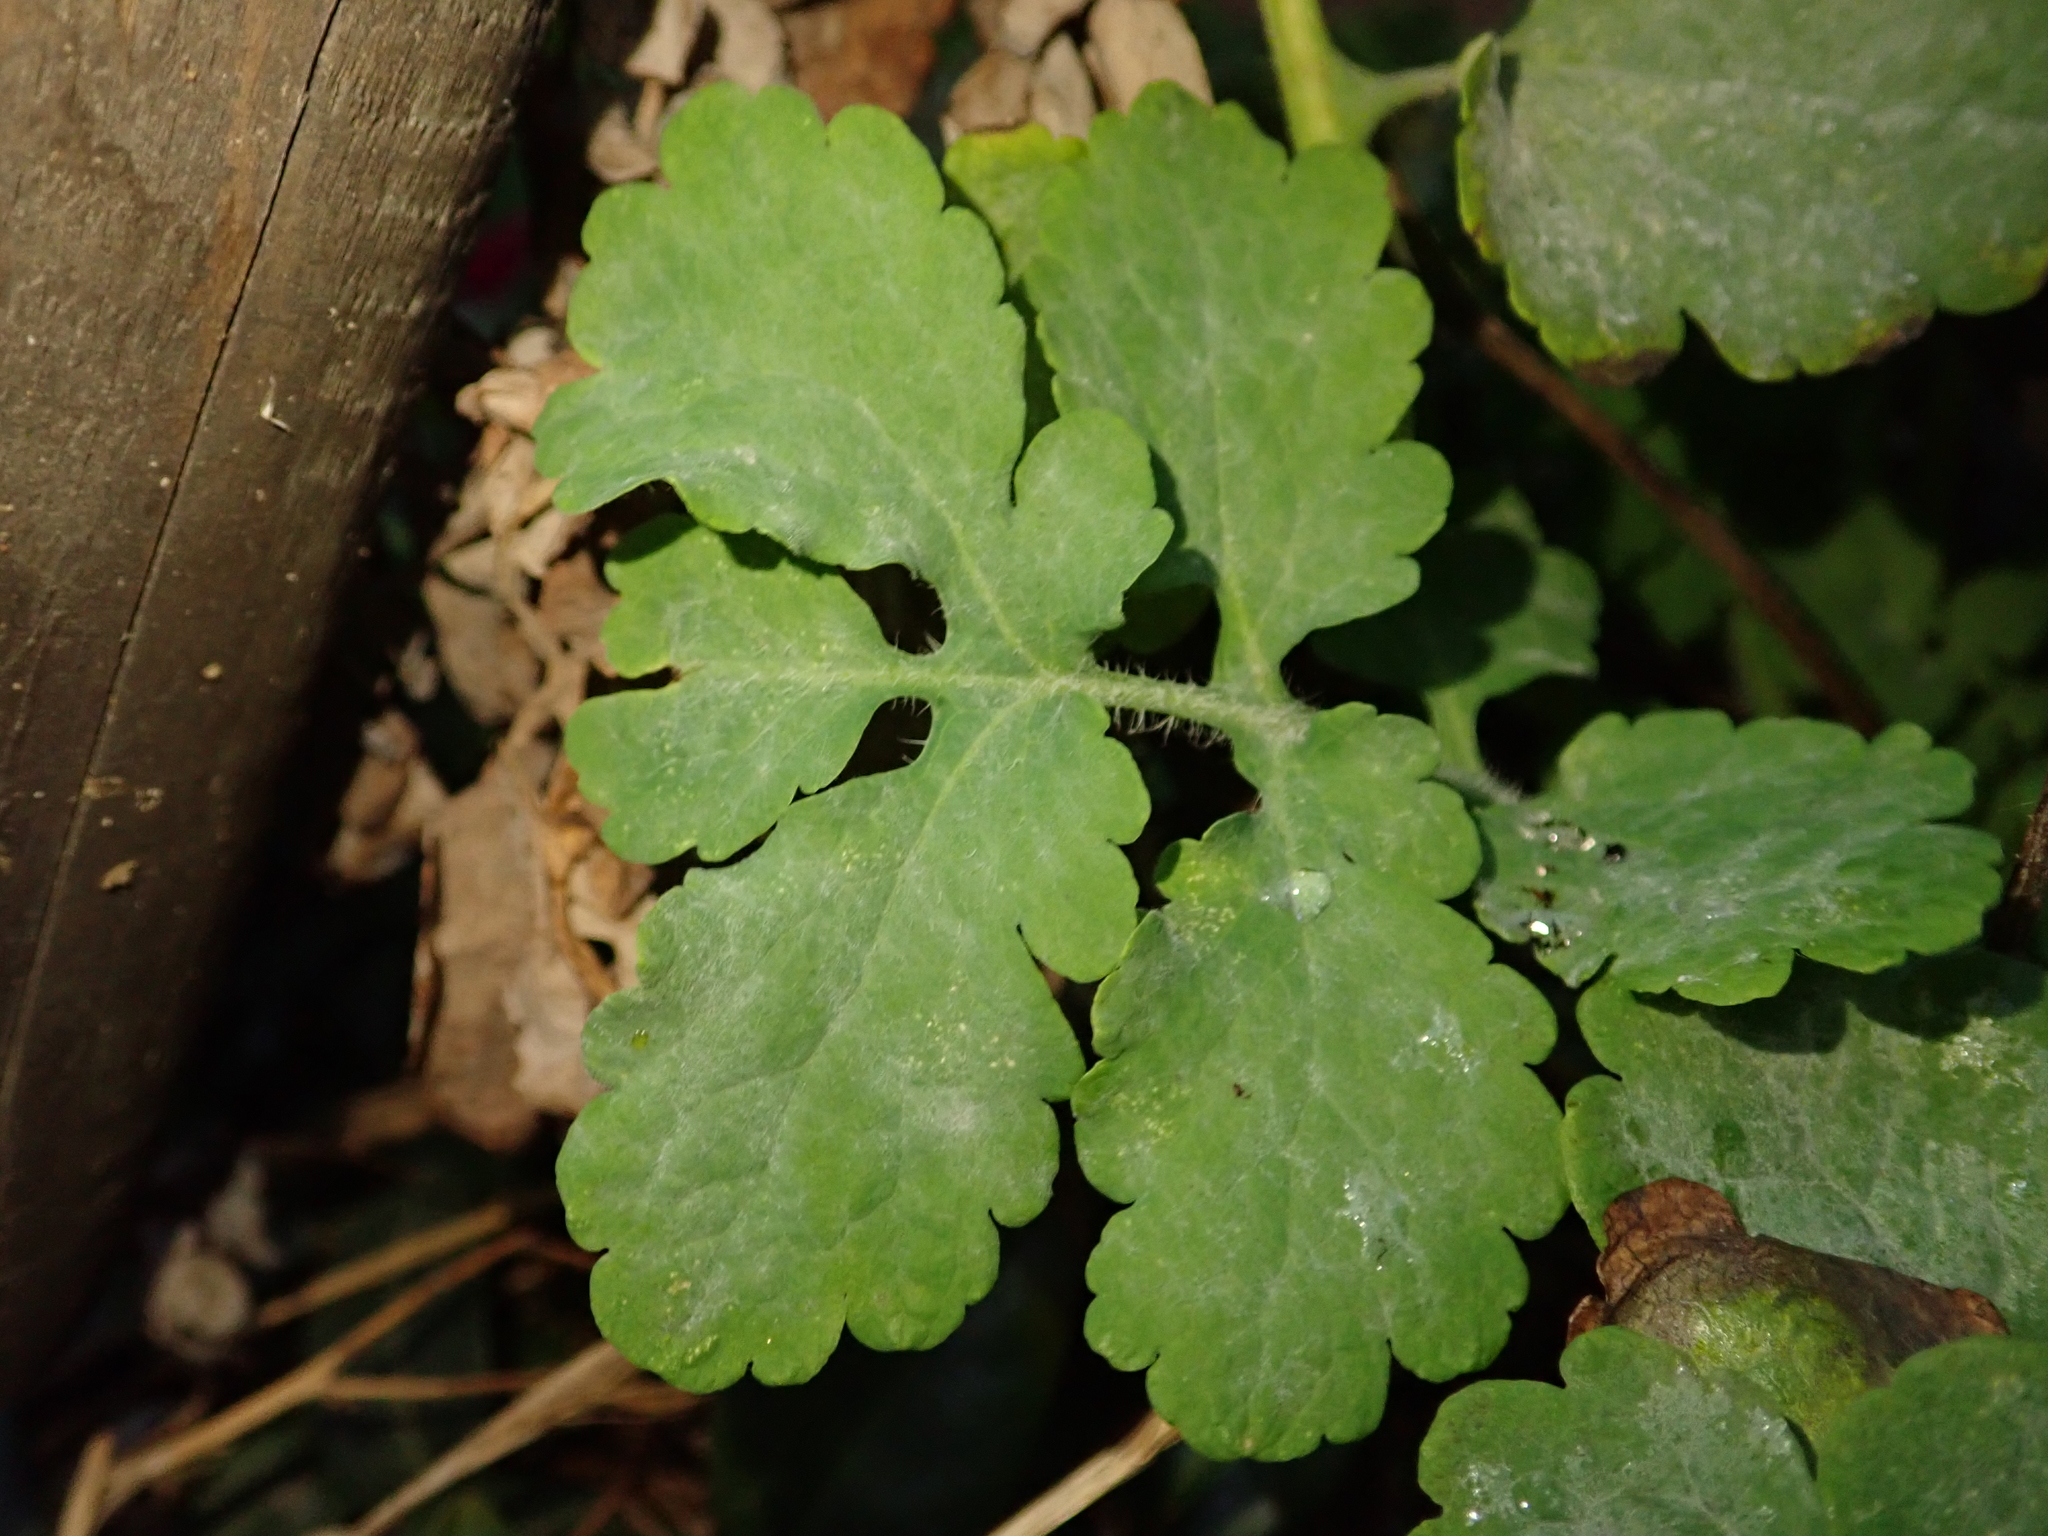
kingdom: Plantae
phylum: Tracheophyta
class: Magnoliopsida
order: Ranunculales
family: Papaveraceae
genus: Chelidonium
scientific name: Chelidonium majus
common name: Greater celandine
